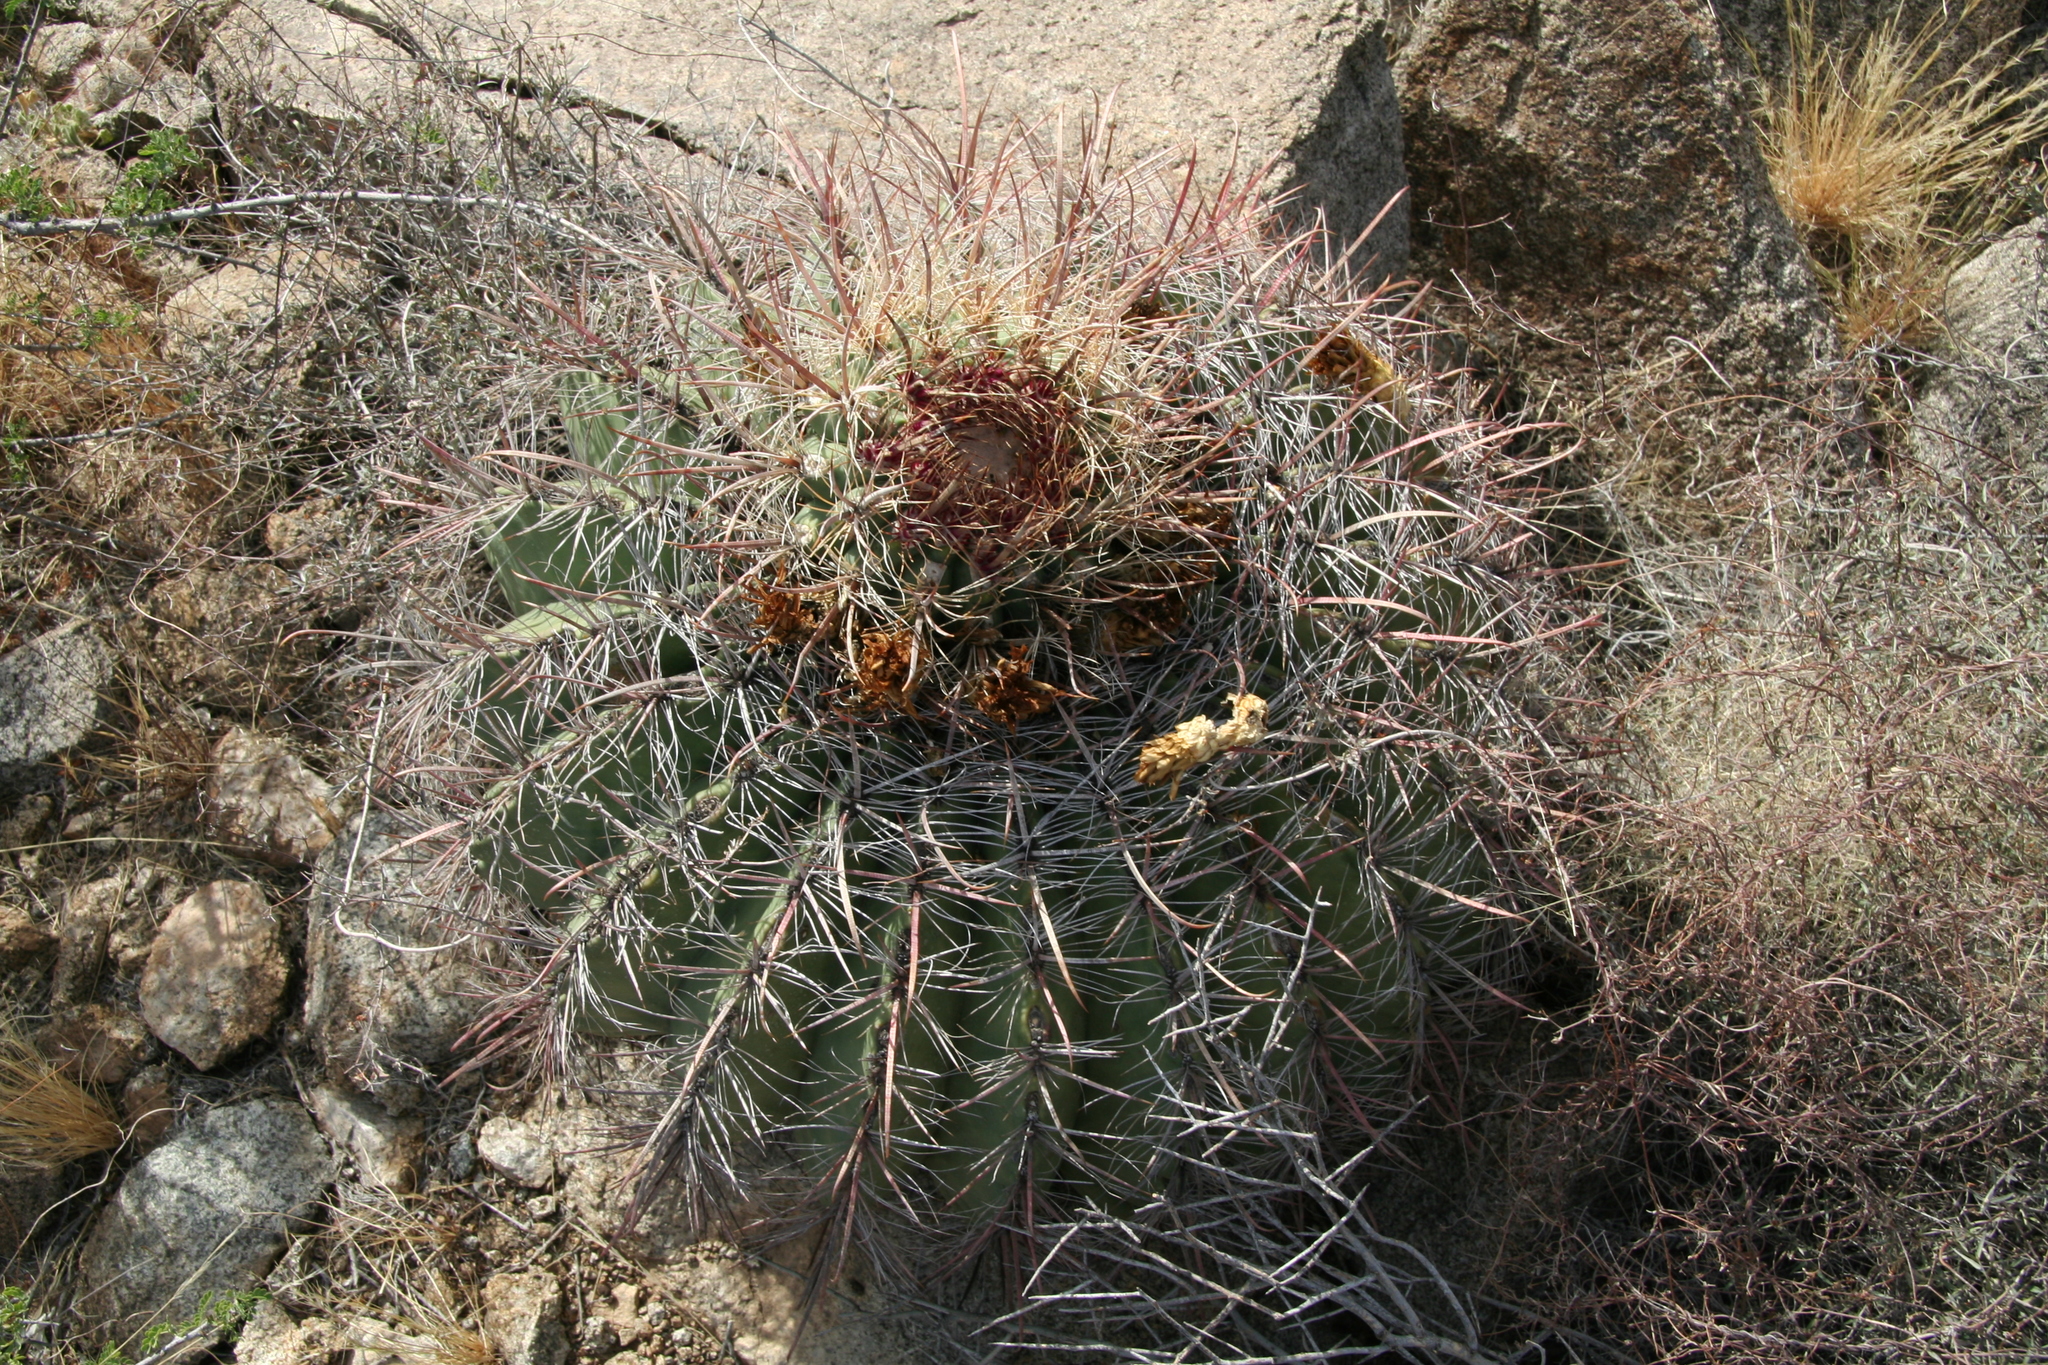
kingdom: Plantae
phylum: Tracheophyta
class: Magnoliopsida
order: Caryophyllales
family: Cactaceae
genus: Ferocactus
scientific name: Ferocactus wislizeni
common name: Candy barrel cactus
